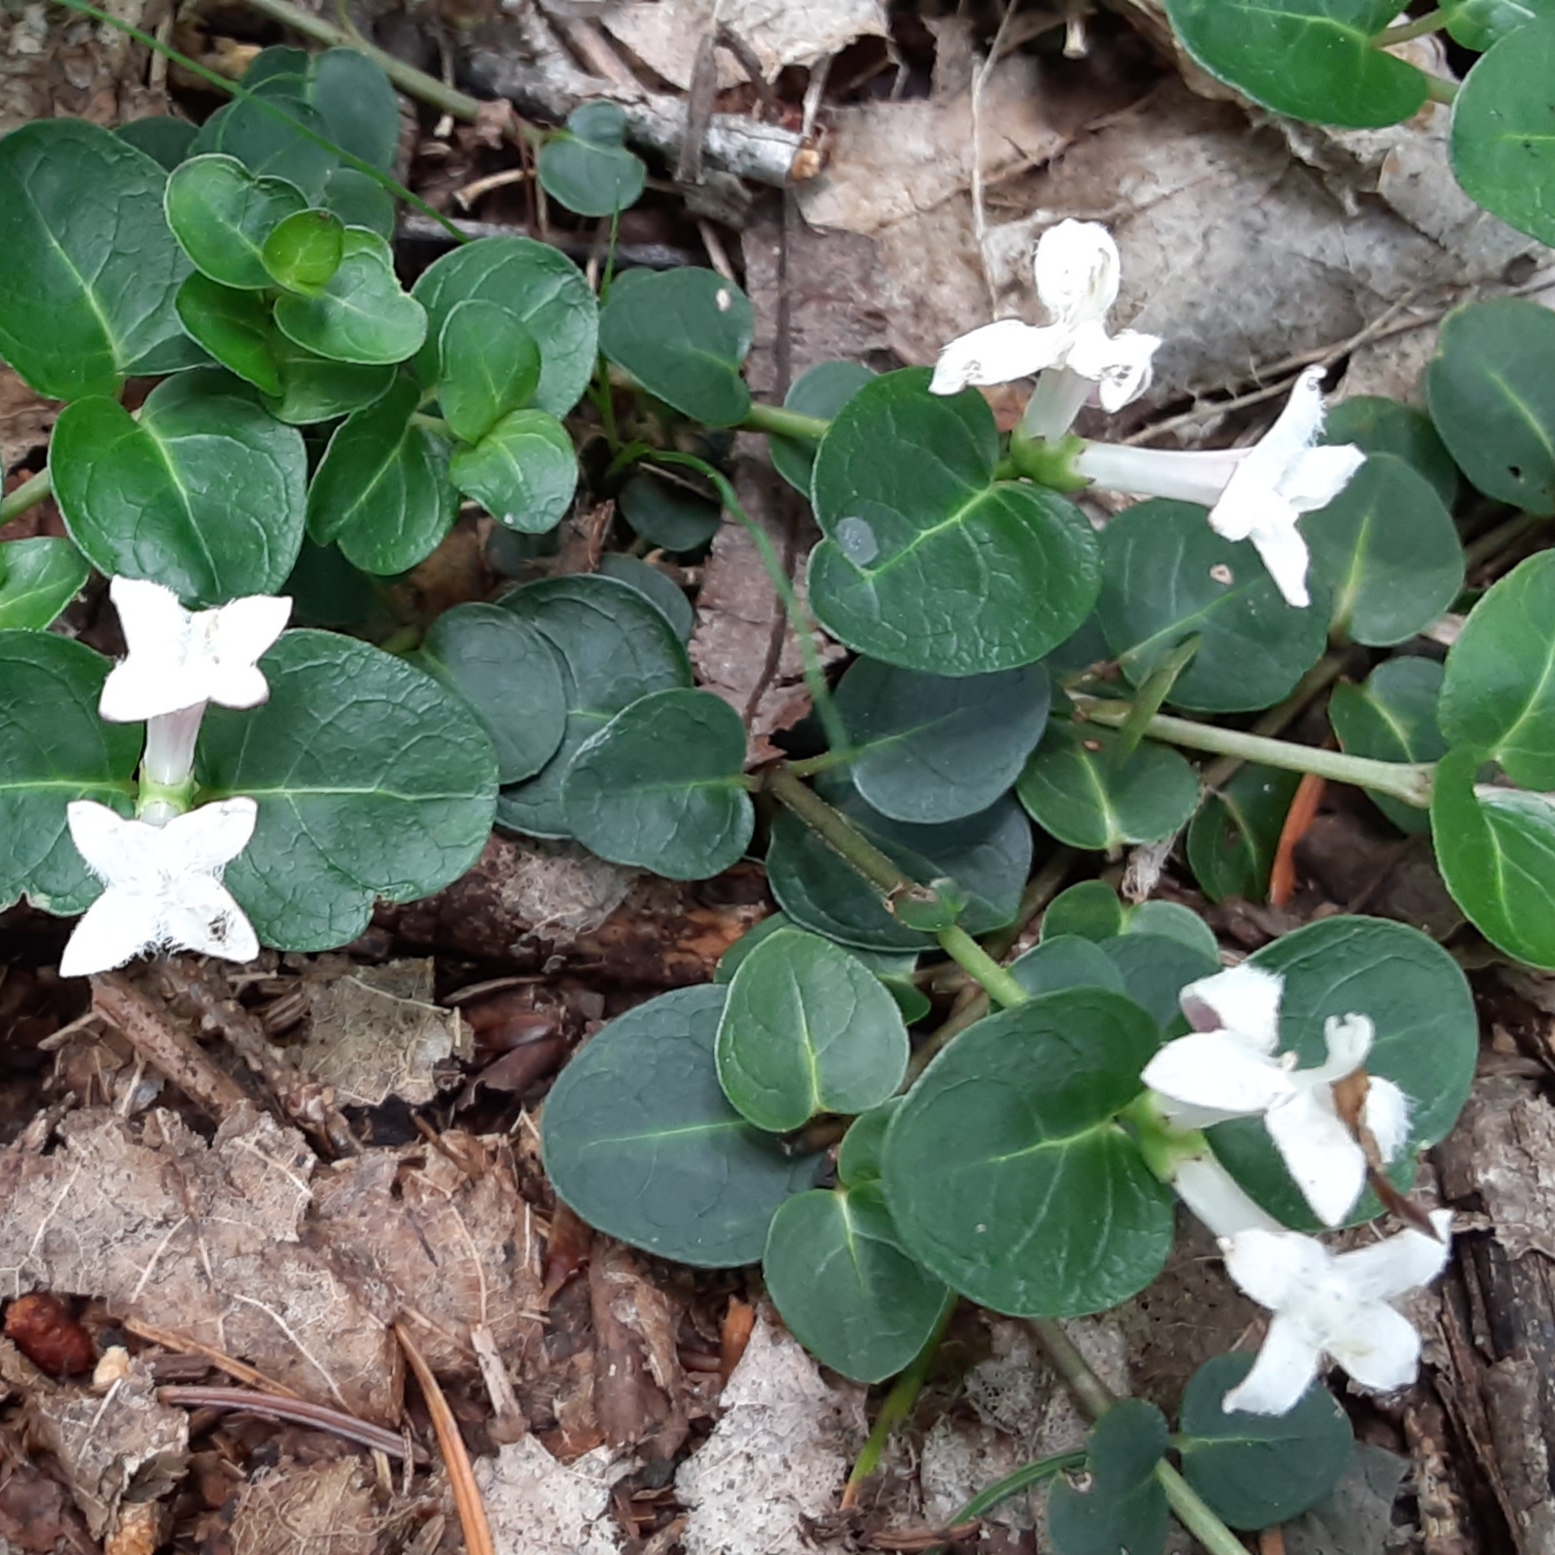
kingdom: Plantae
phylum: Tracheophyta
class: Magnoliopsida
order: Gentianales
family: Rubiaceae
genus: Mitchella
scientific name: Mitchella repens
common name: Partridge-berry
